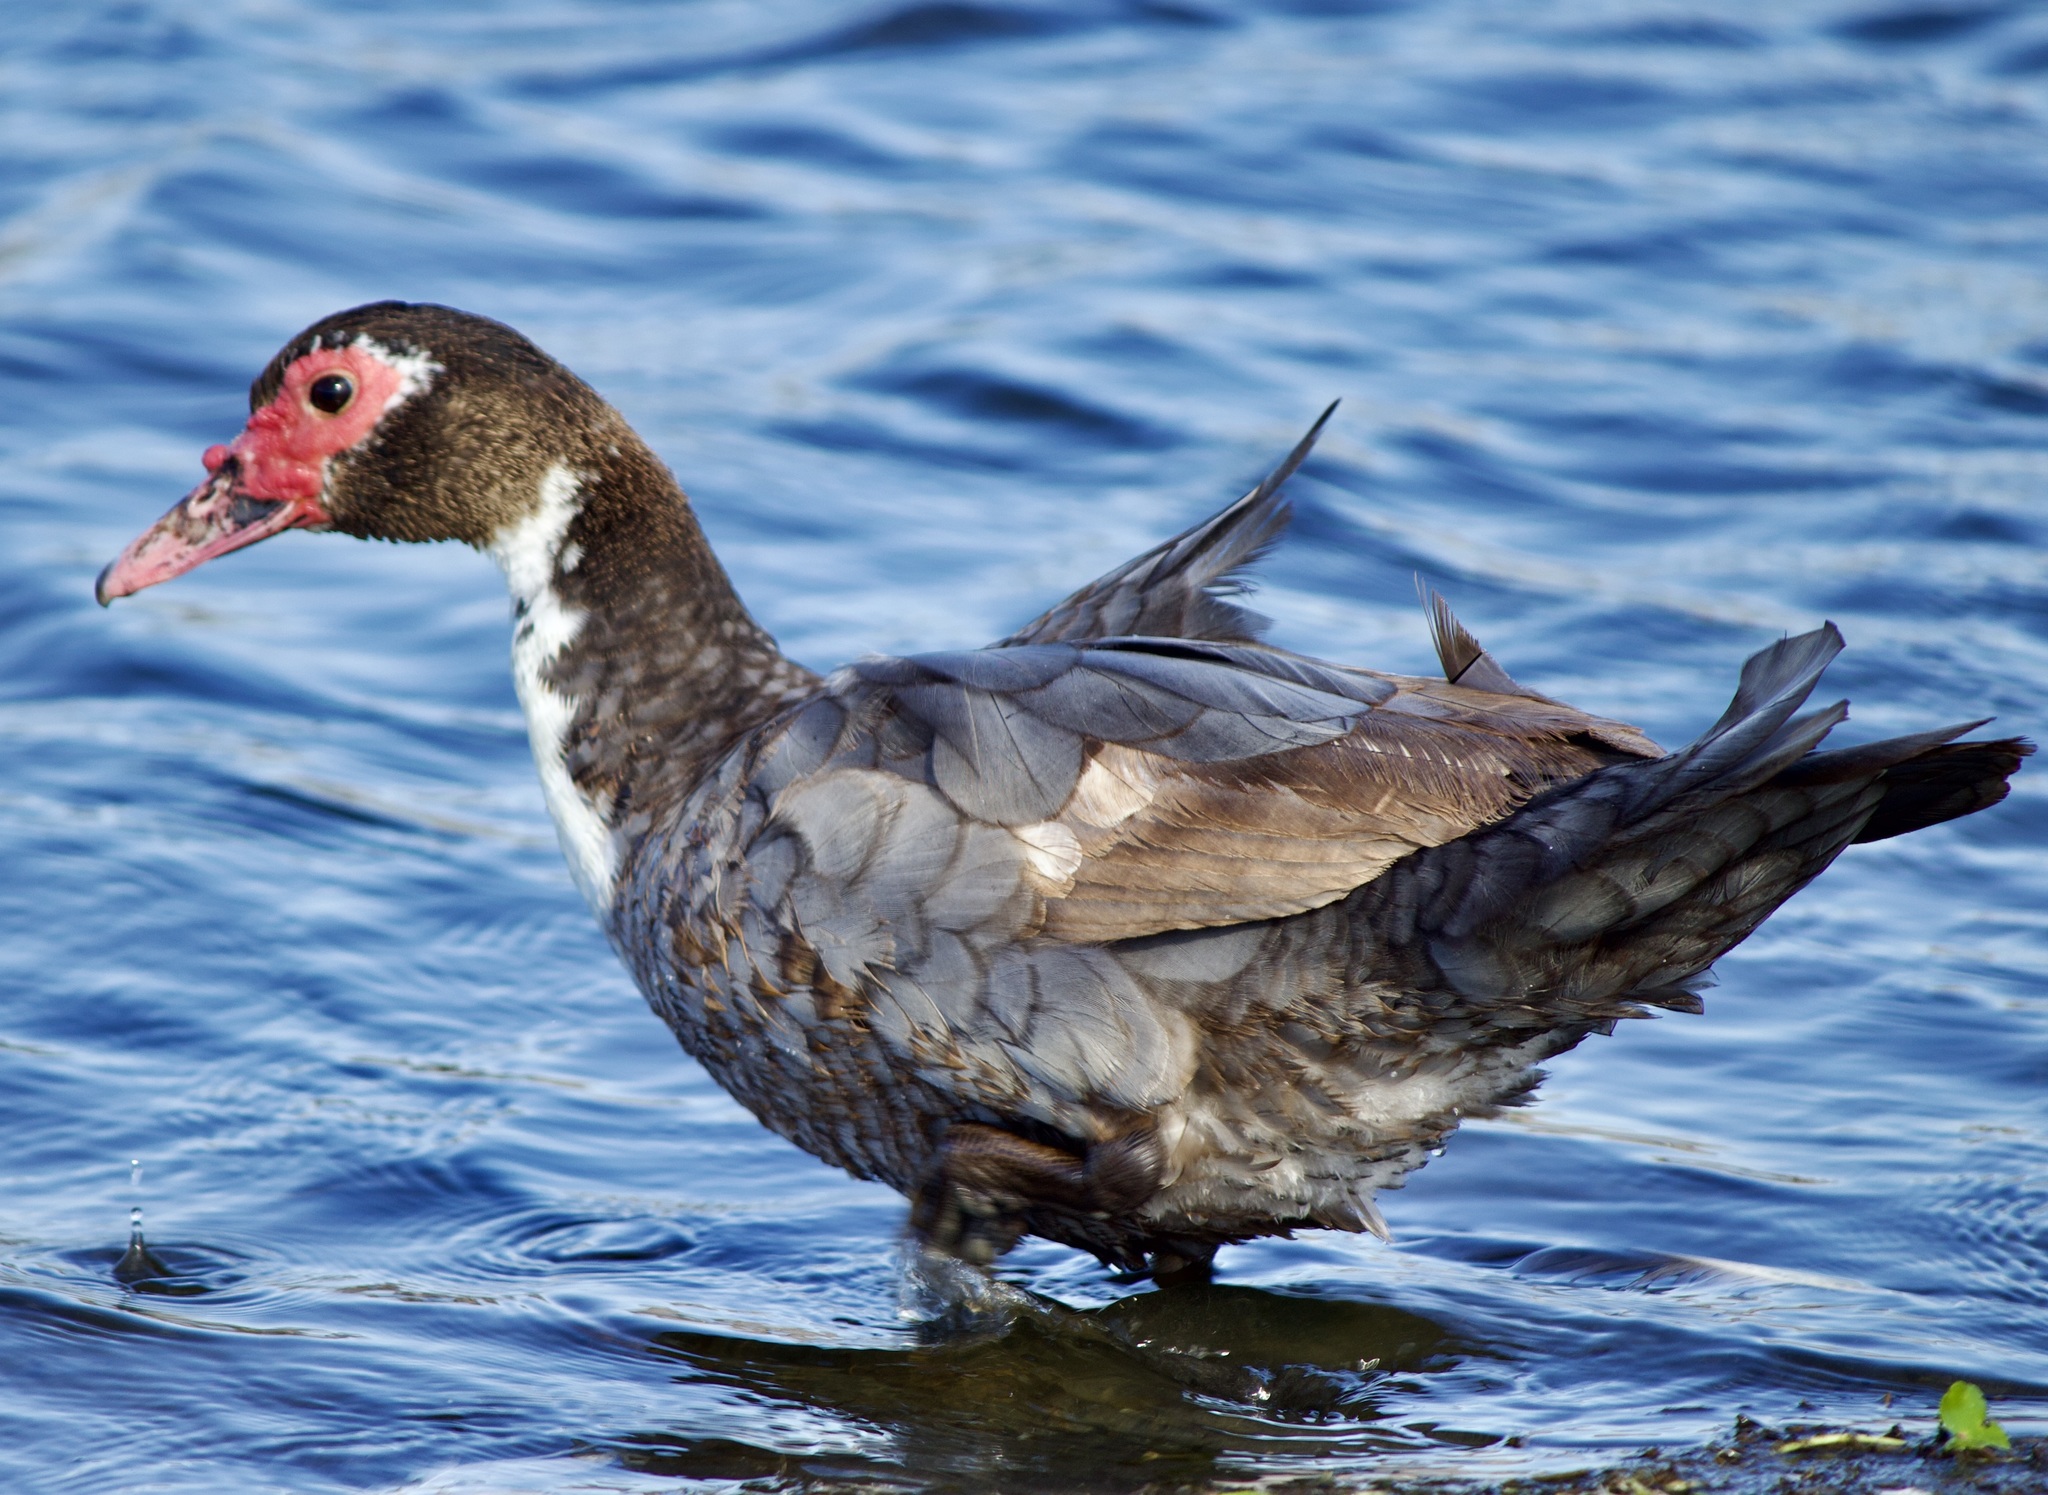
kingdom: Animalia
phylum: Chordata
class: Aves
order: Anseriformes
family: Anatidae
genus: Cairina
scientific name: Cairina moschata
